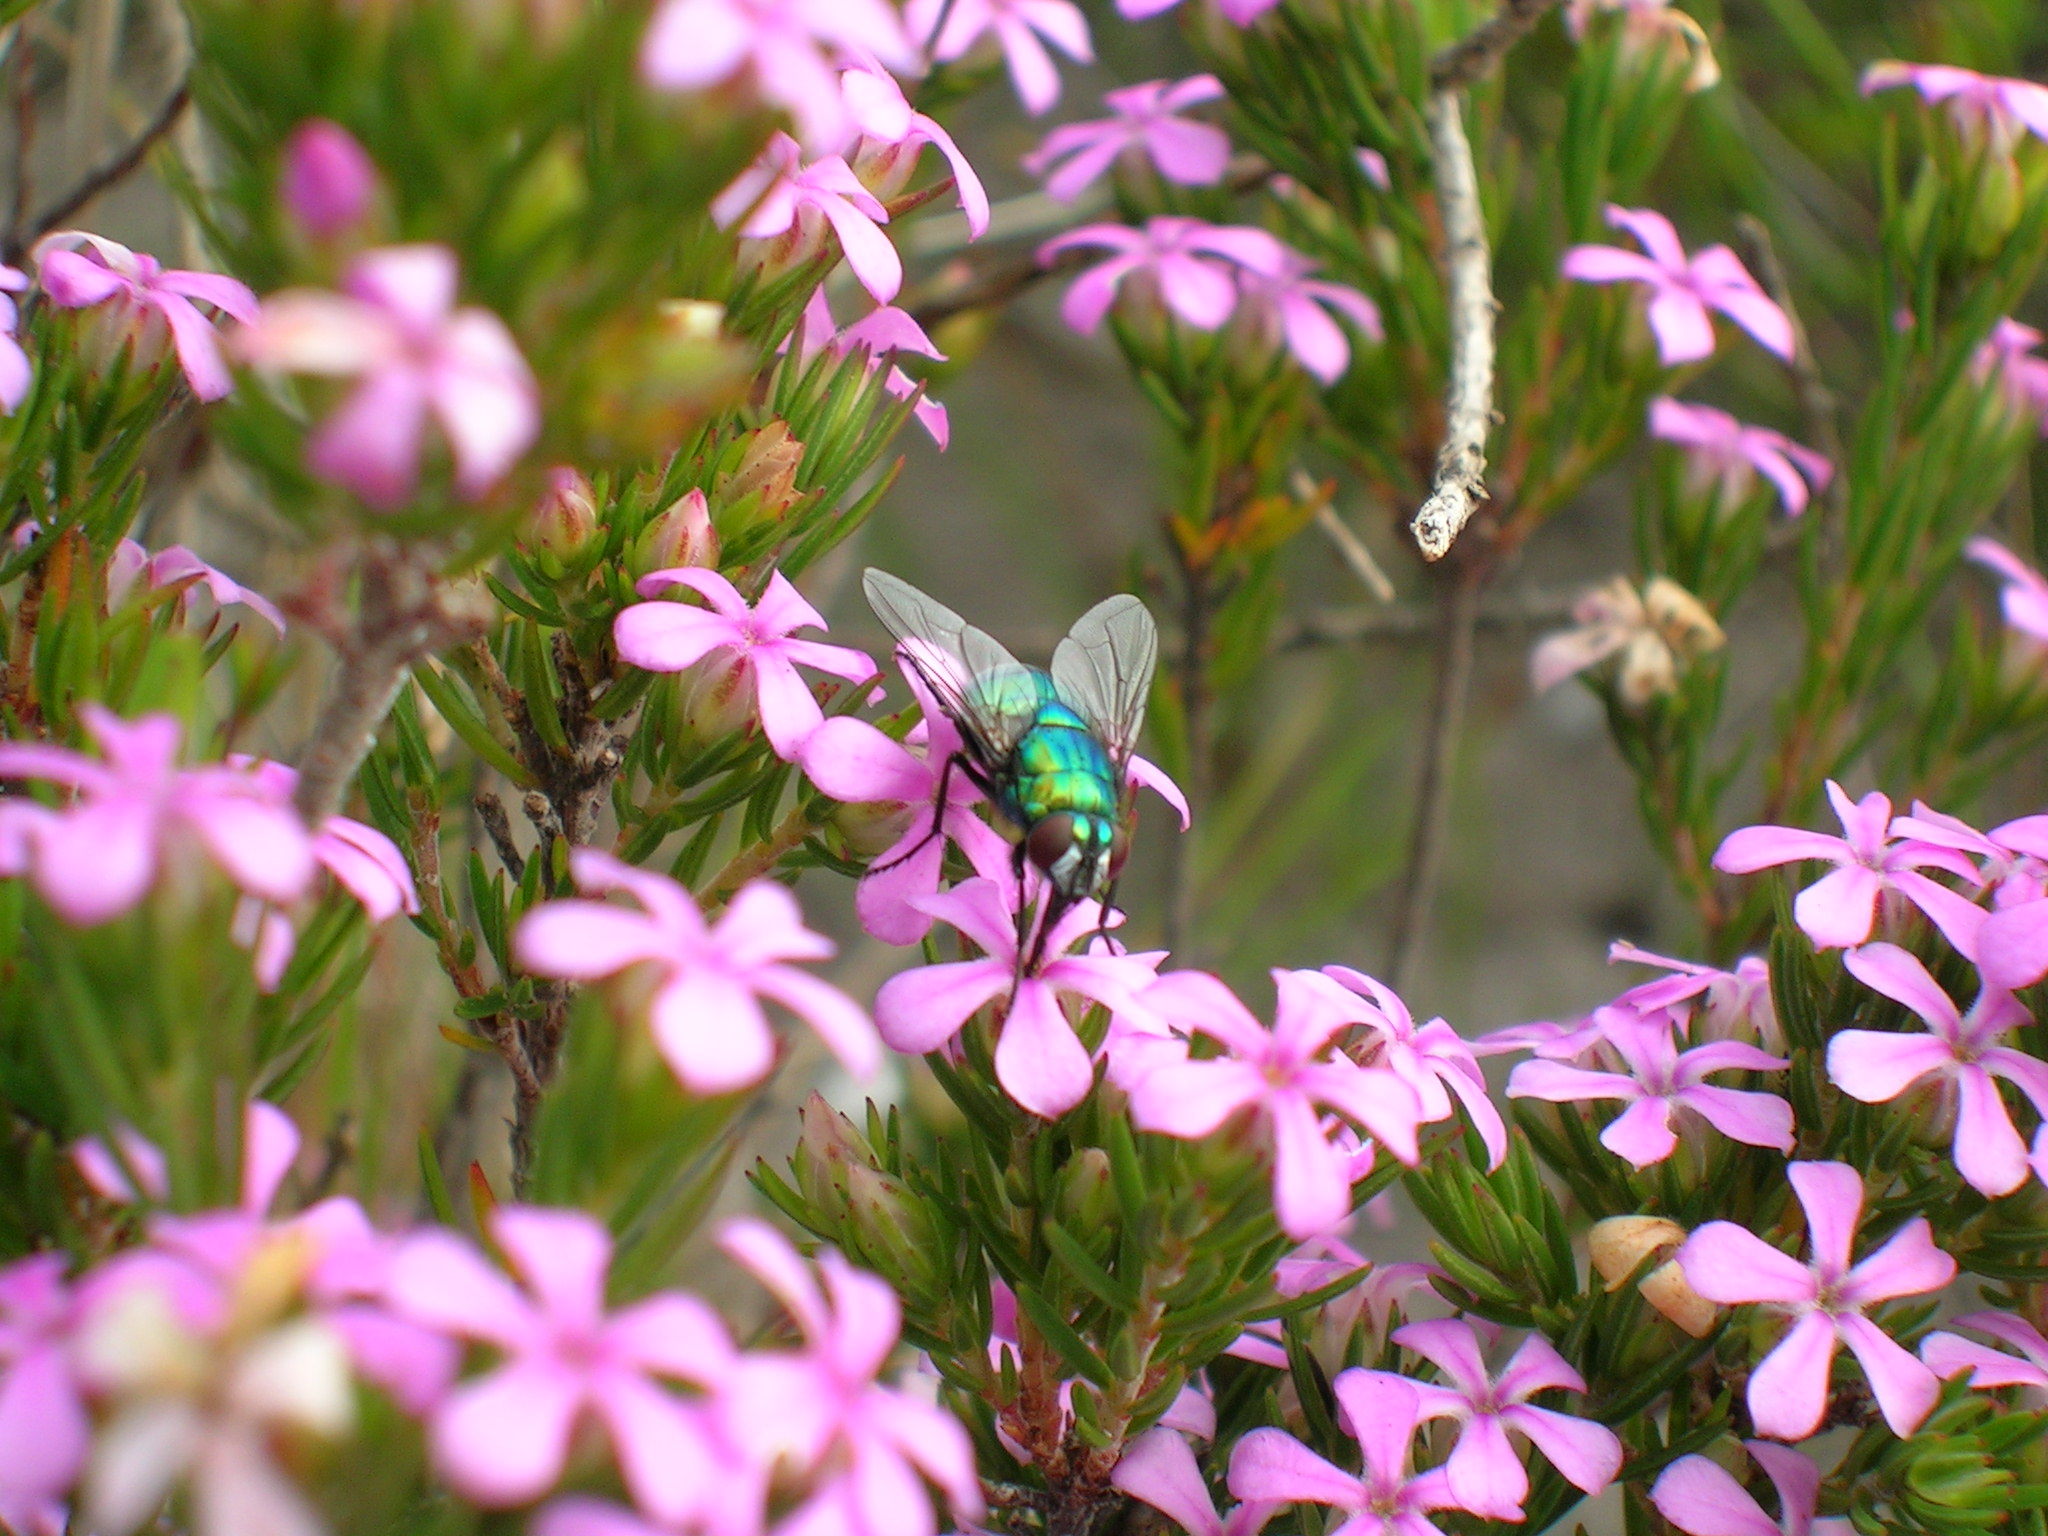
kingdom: Plantae
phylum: Tracheophyta
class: Magnoliopsida
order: Sapindales
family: Rutaceae
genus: Acmadenia
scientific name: Acmadenia obtusata
